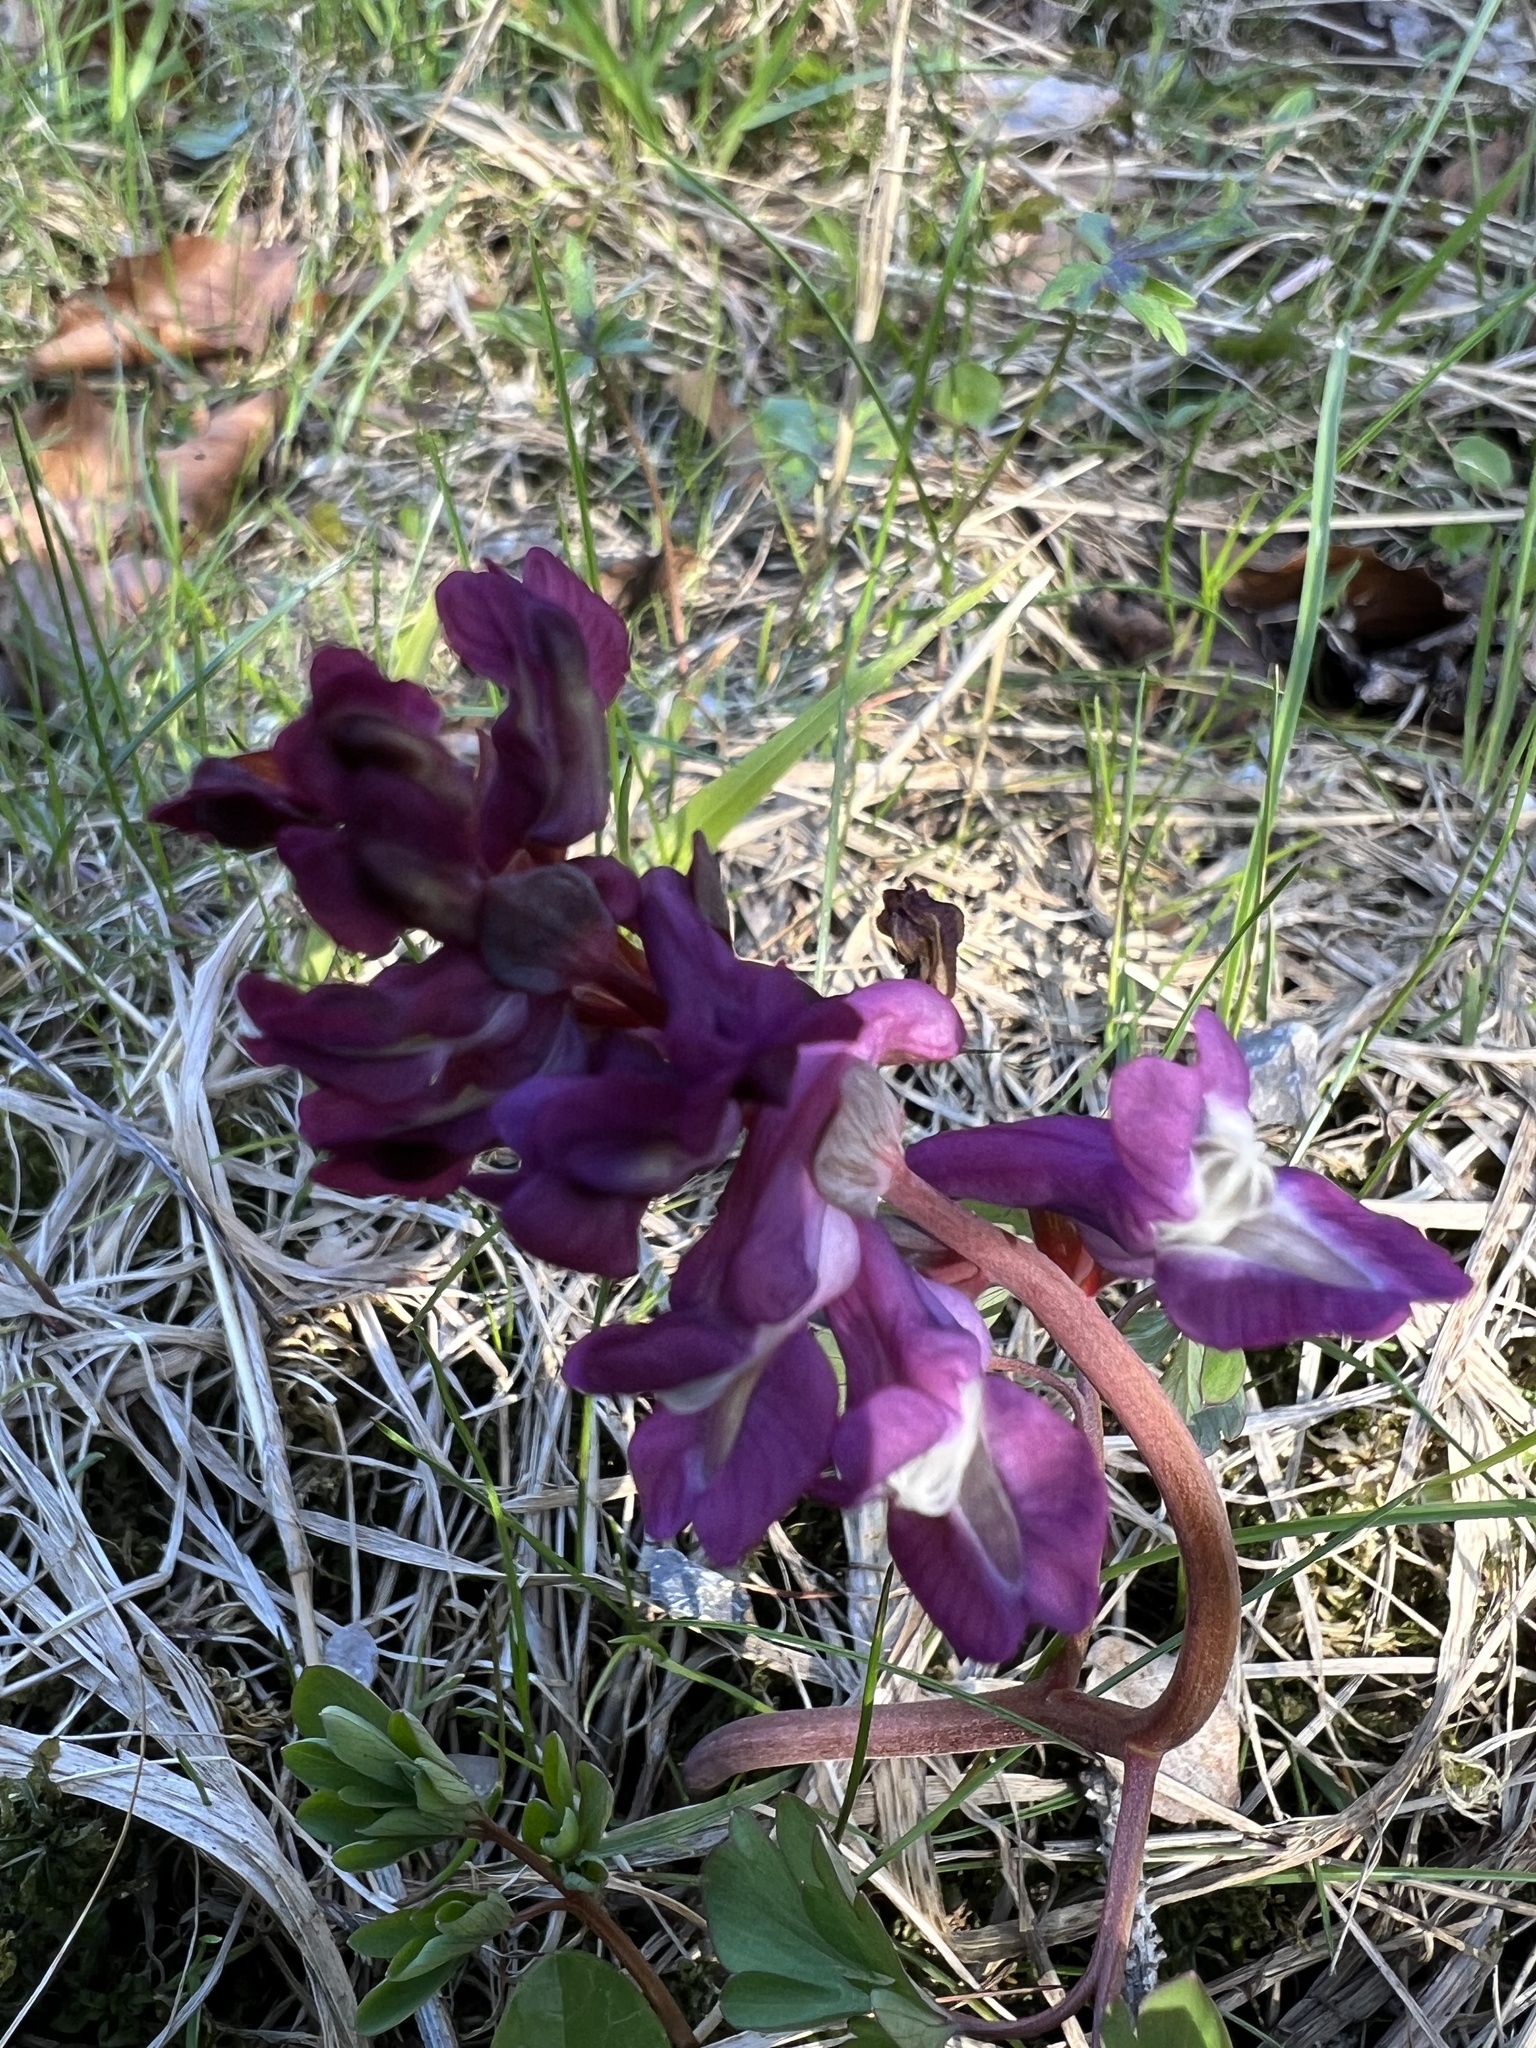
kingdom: Plantae
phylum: Tracheophyta
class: Magnoliopsida
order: Ranunculales
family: Papaveraceae
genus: Corydalis
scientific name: Corydalis cava
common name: Hollowroot
